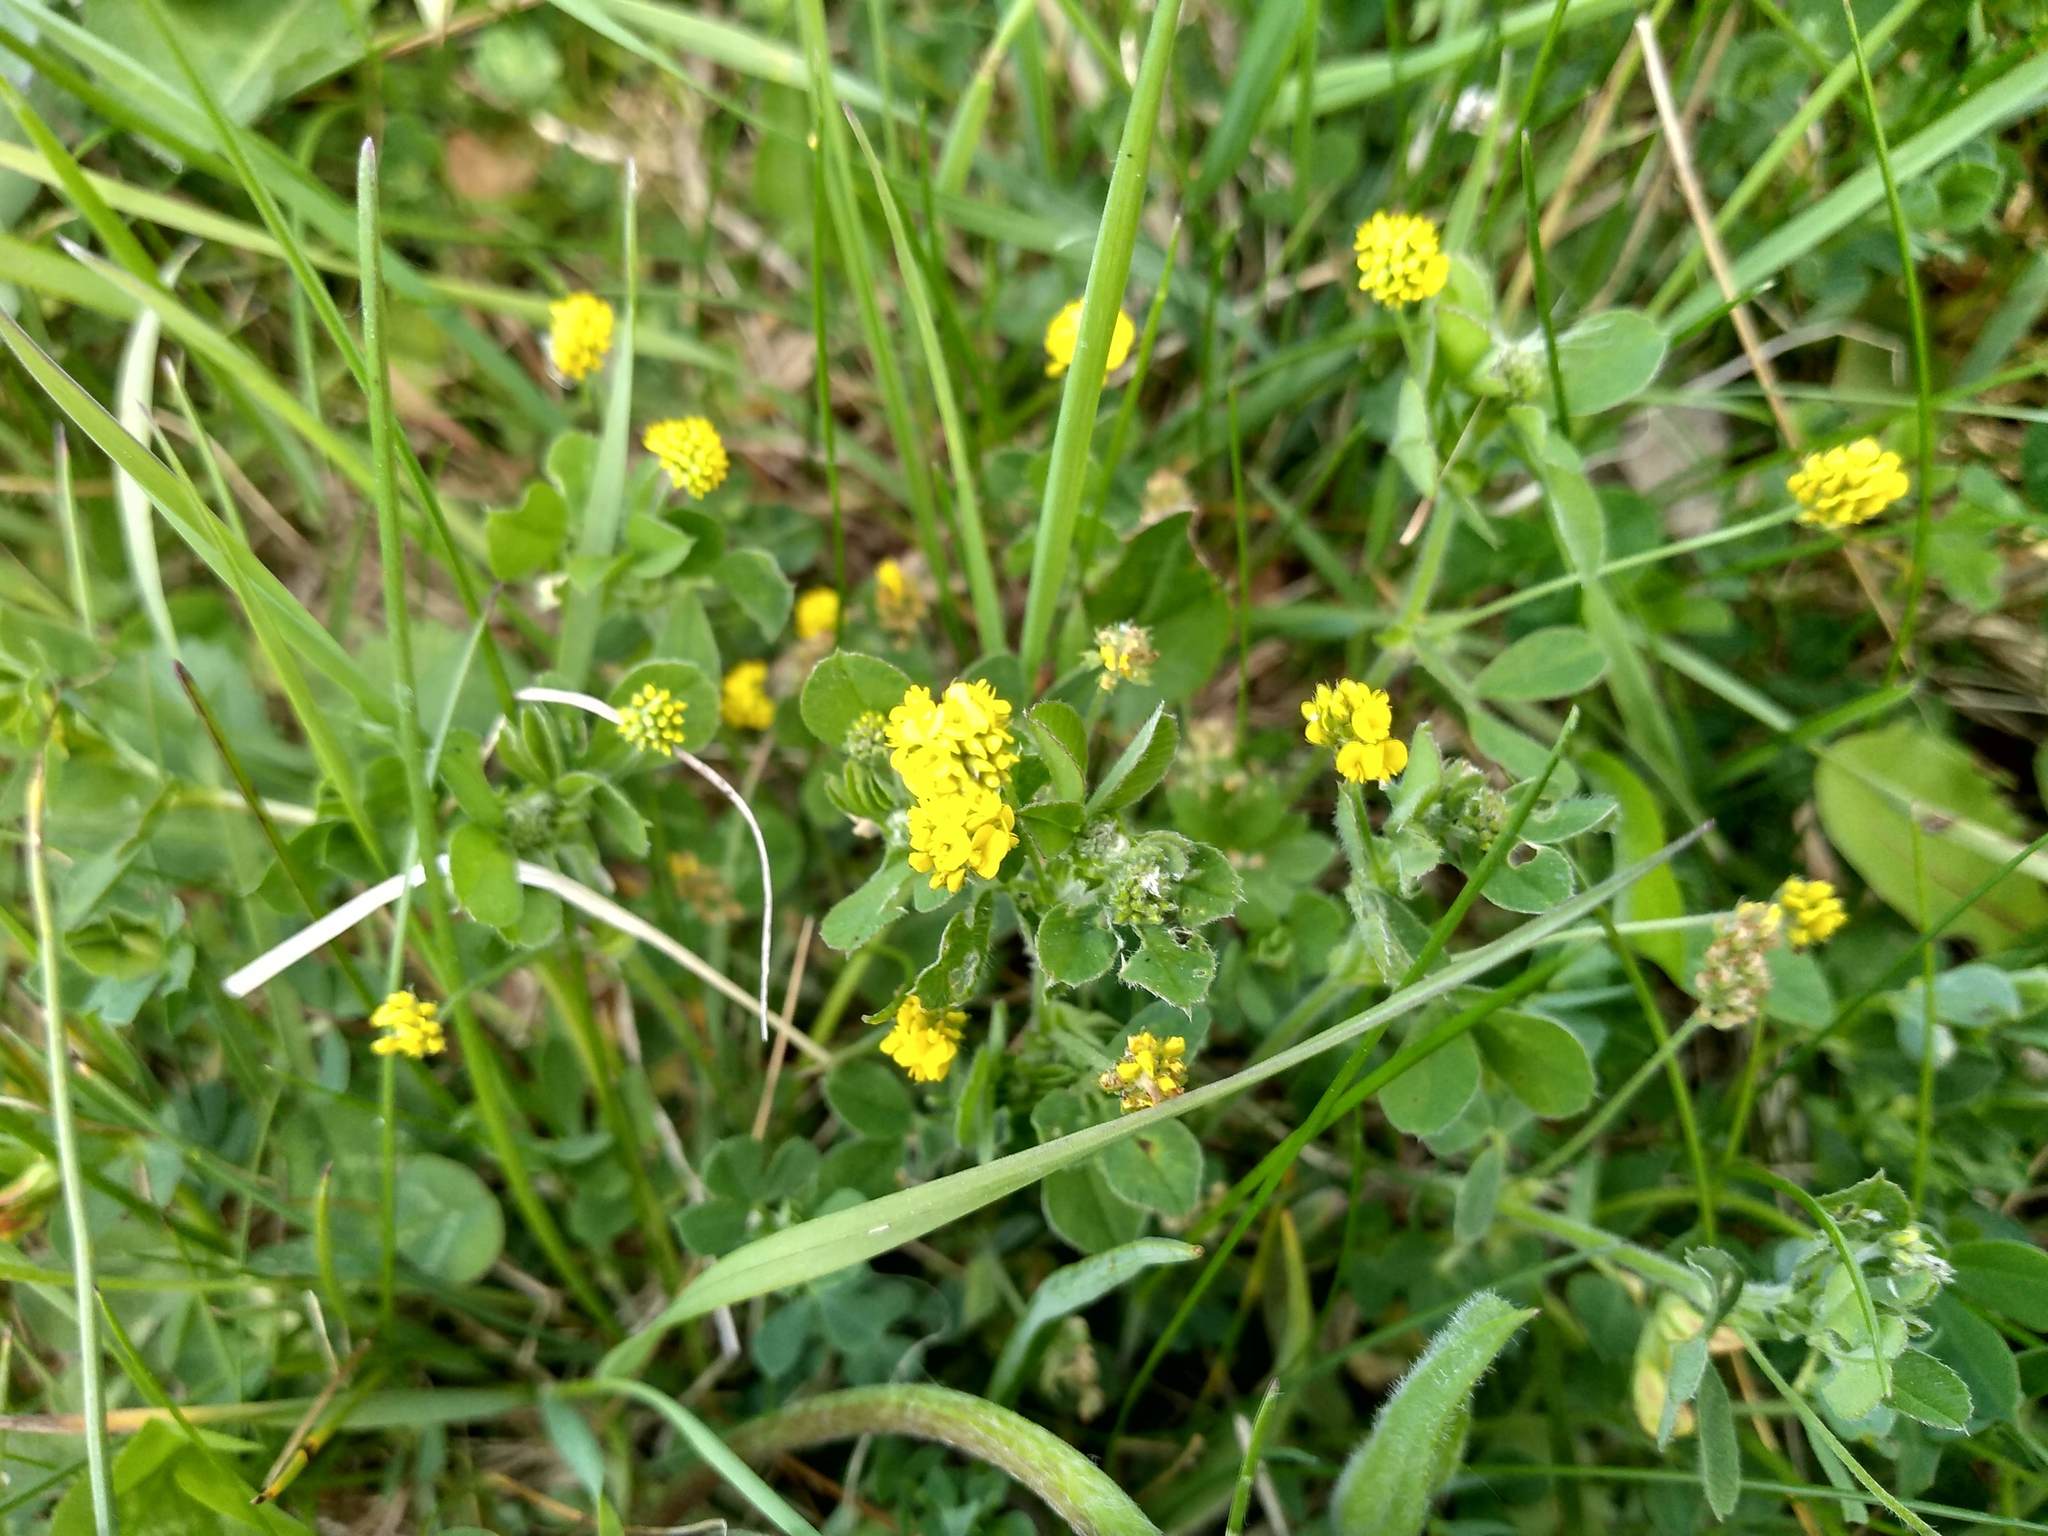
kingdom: Plantae
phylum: Tracheophyta
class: Magnoliopsida
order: Fabales
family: Fabaceae
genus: Medicago
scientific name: Medicago lupulina
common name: Black medick
